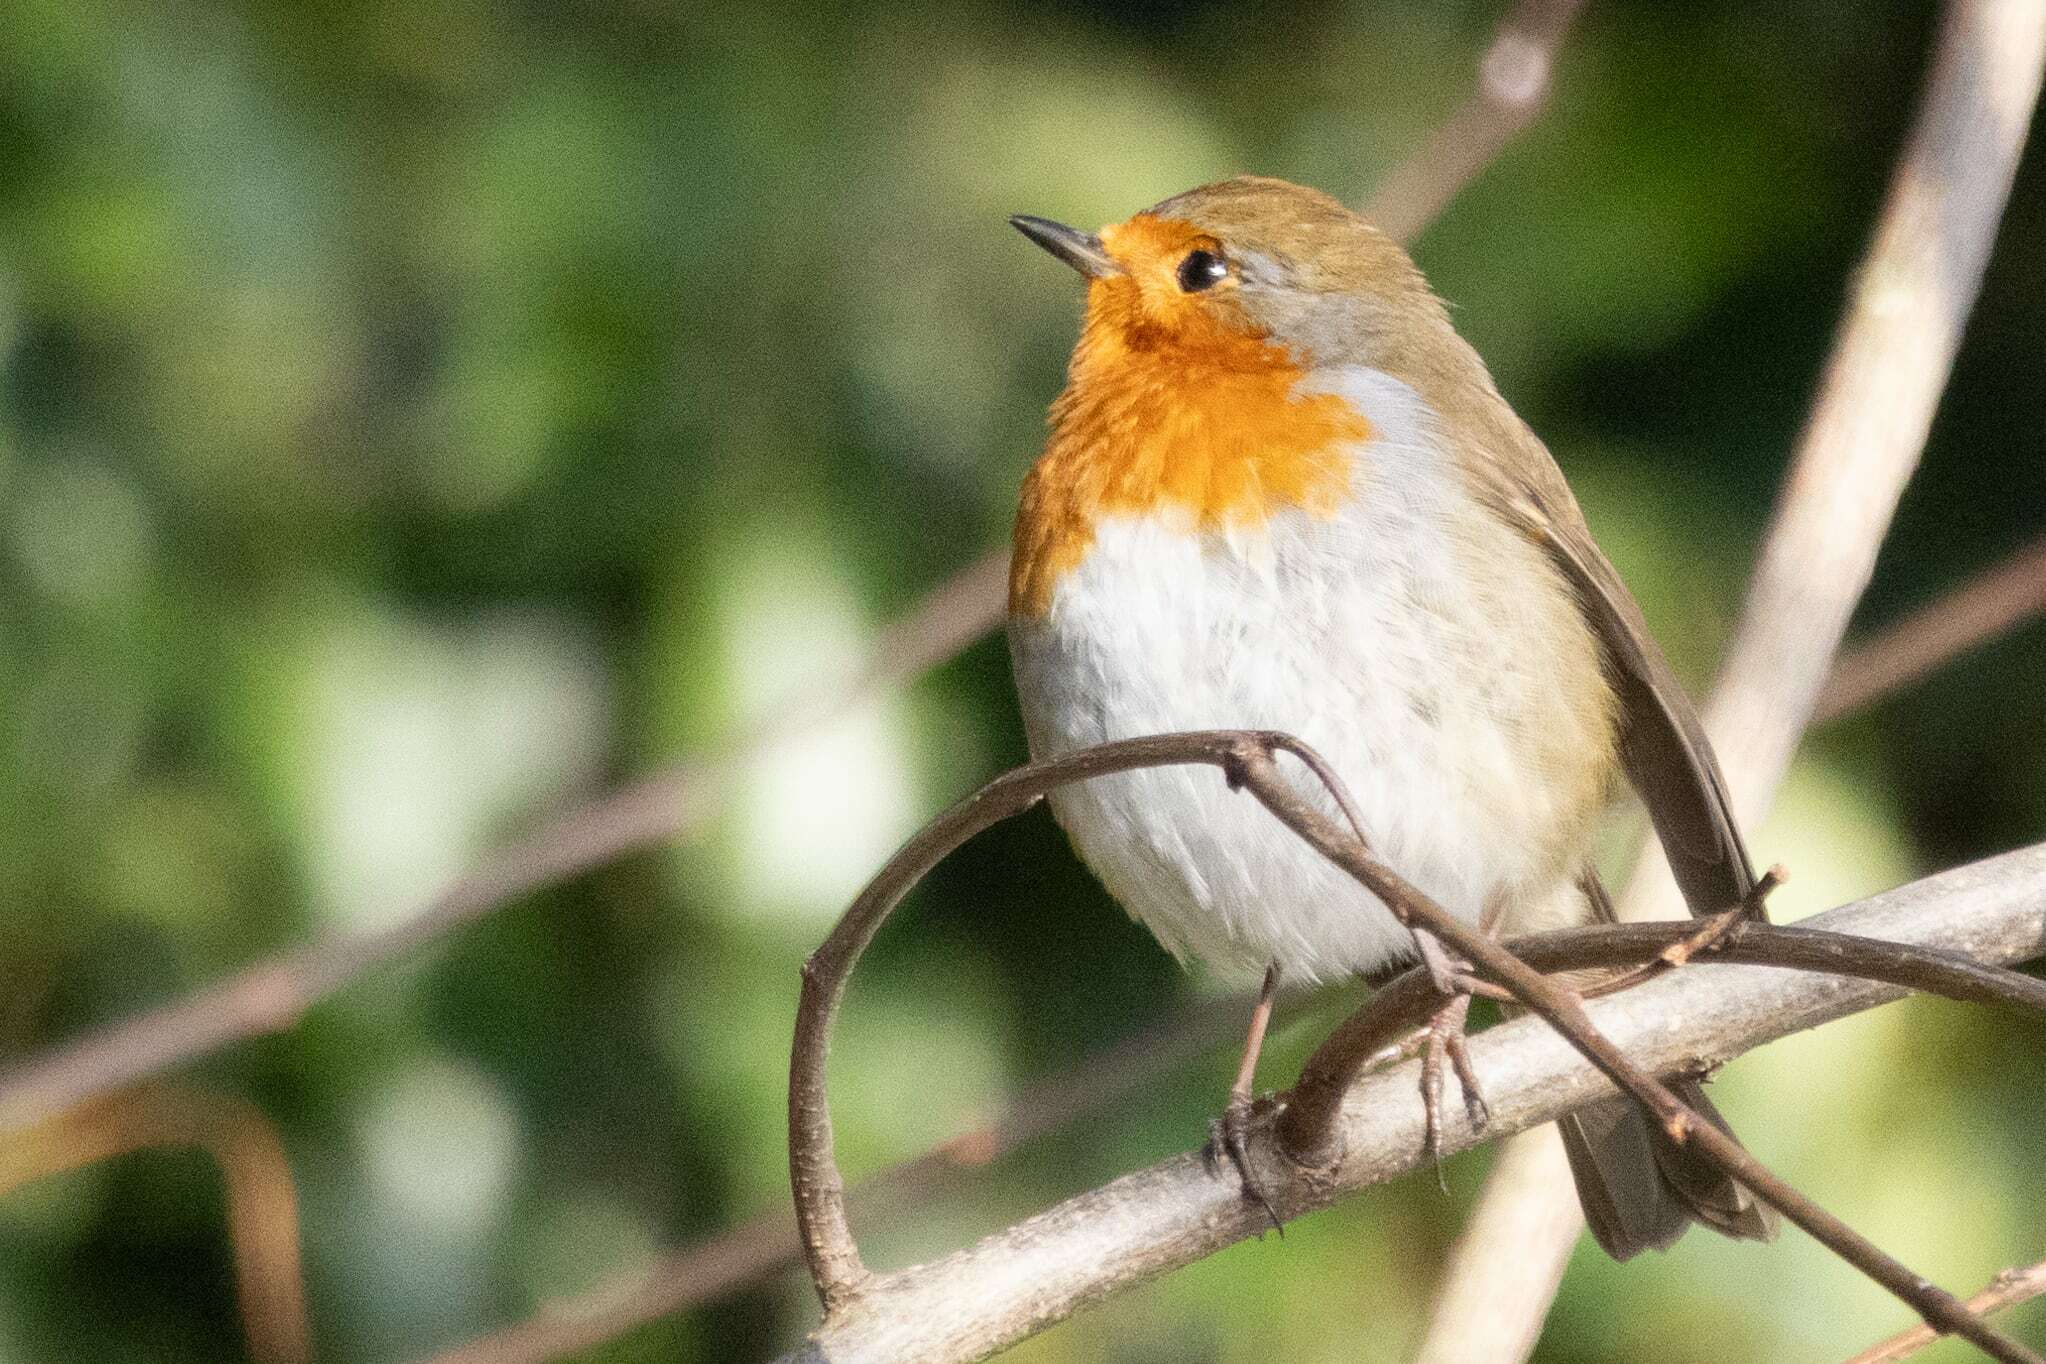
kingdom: Animalia
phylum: Chordata
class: Aves
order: Passeriformes
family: Muscicapidae
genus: Erithacus
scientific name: Erithacus rubecula
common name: European robin
